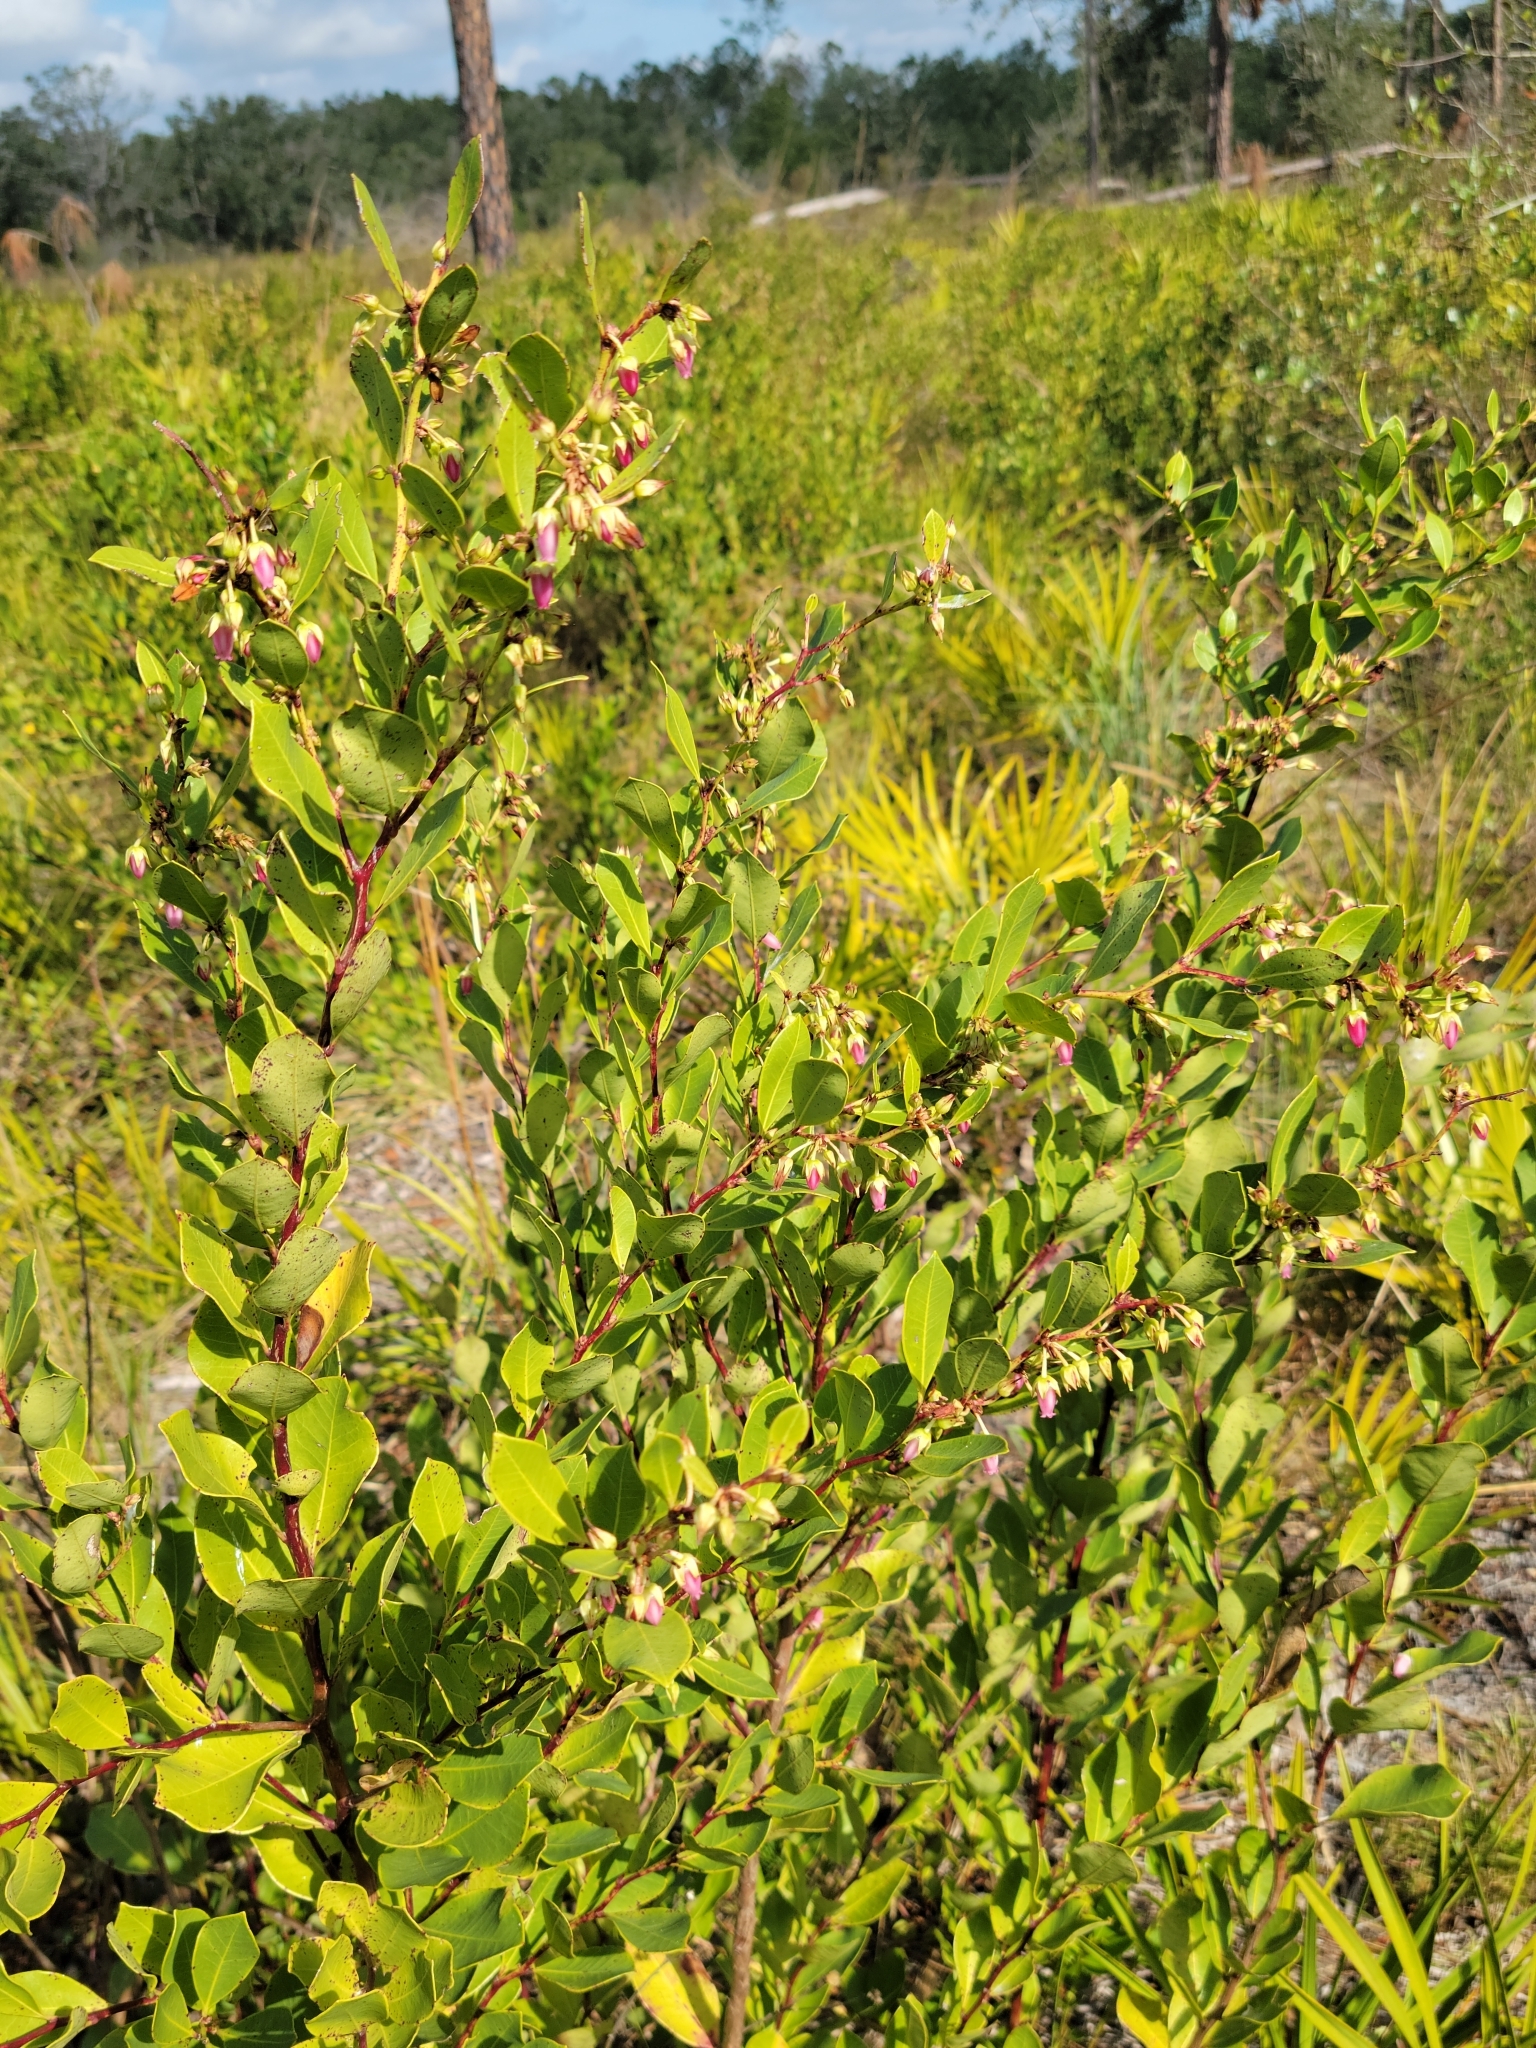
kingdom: Plantae
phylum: Tracheophyta
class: Magnoliopsida
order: Ericales
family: Ericaceae
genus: Lyonia
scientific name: Lyonia lucida
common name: Fetterbush
